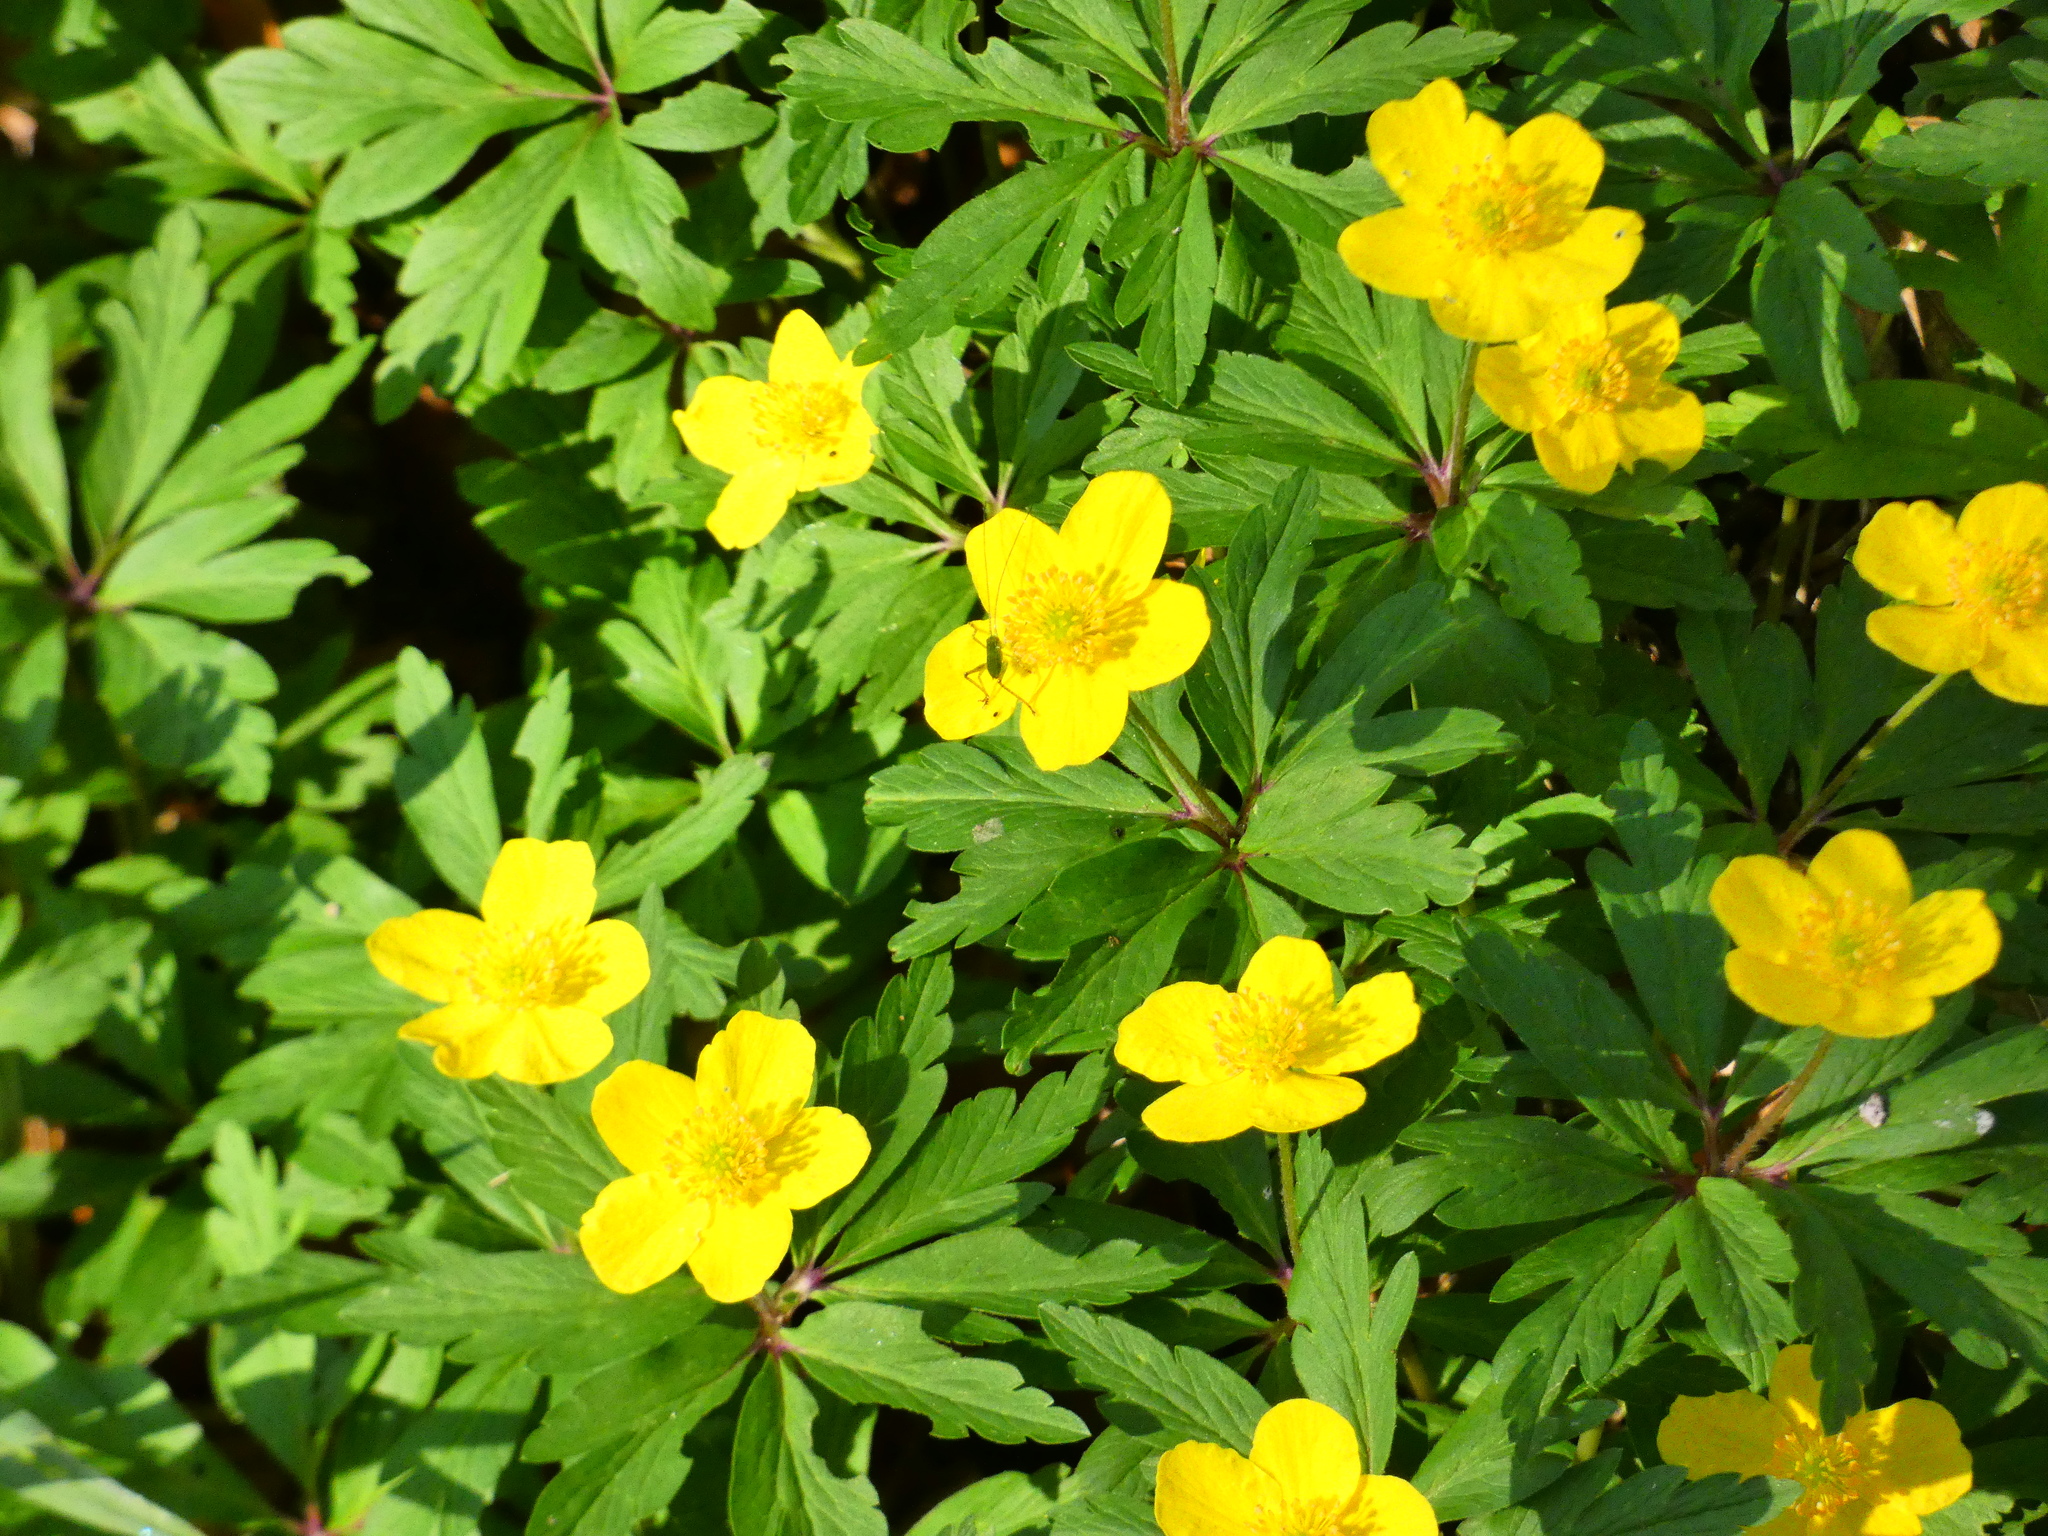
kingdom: Plantae
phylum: Tracheophyta
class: Magnoliopsida
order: Ranunculales
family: Ranunculaceae
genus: Anemone
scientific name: Anemone ranunculoides
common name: Yellow anemone
